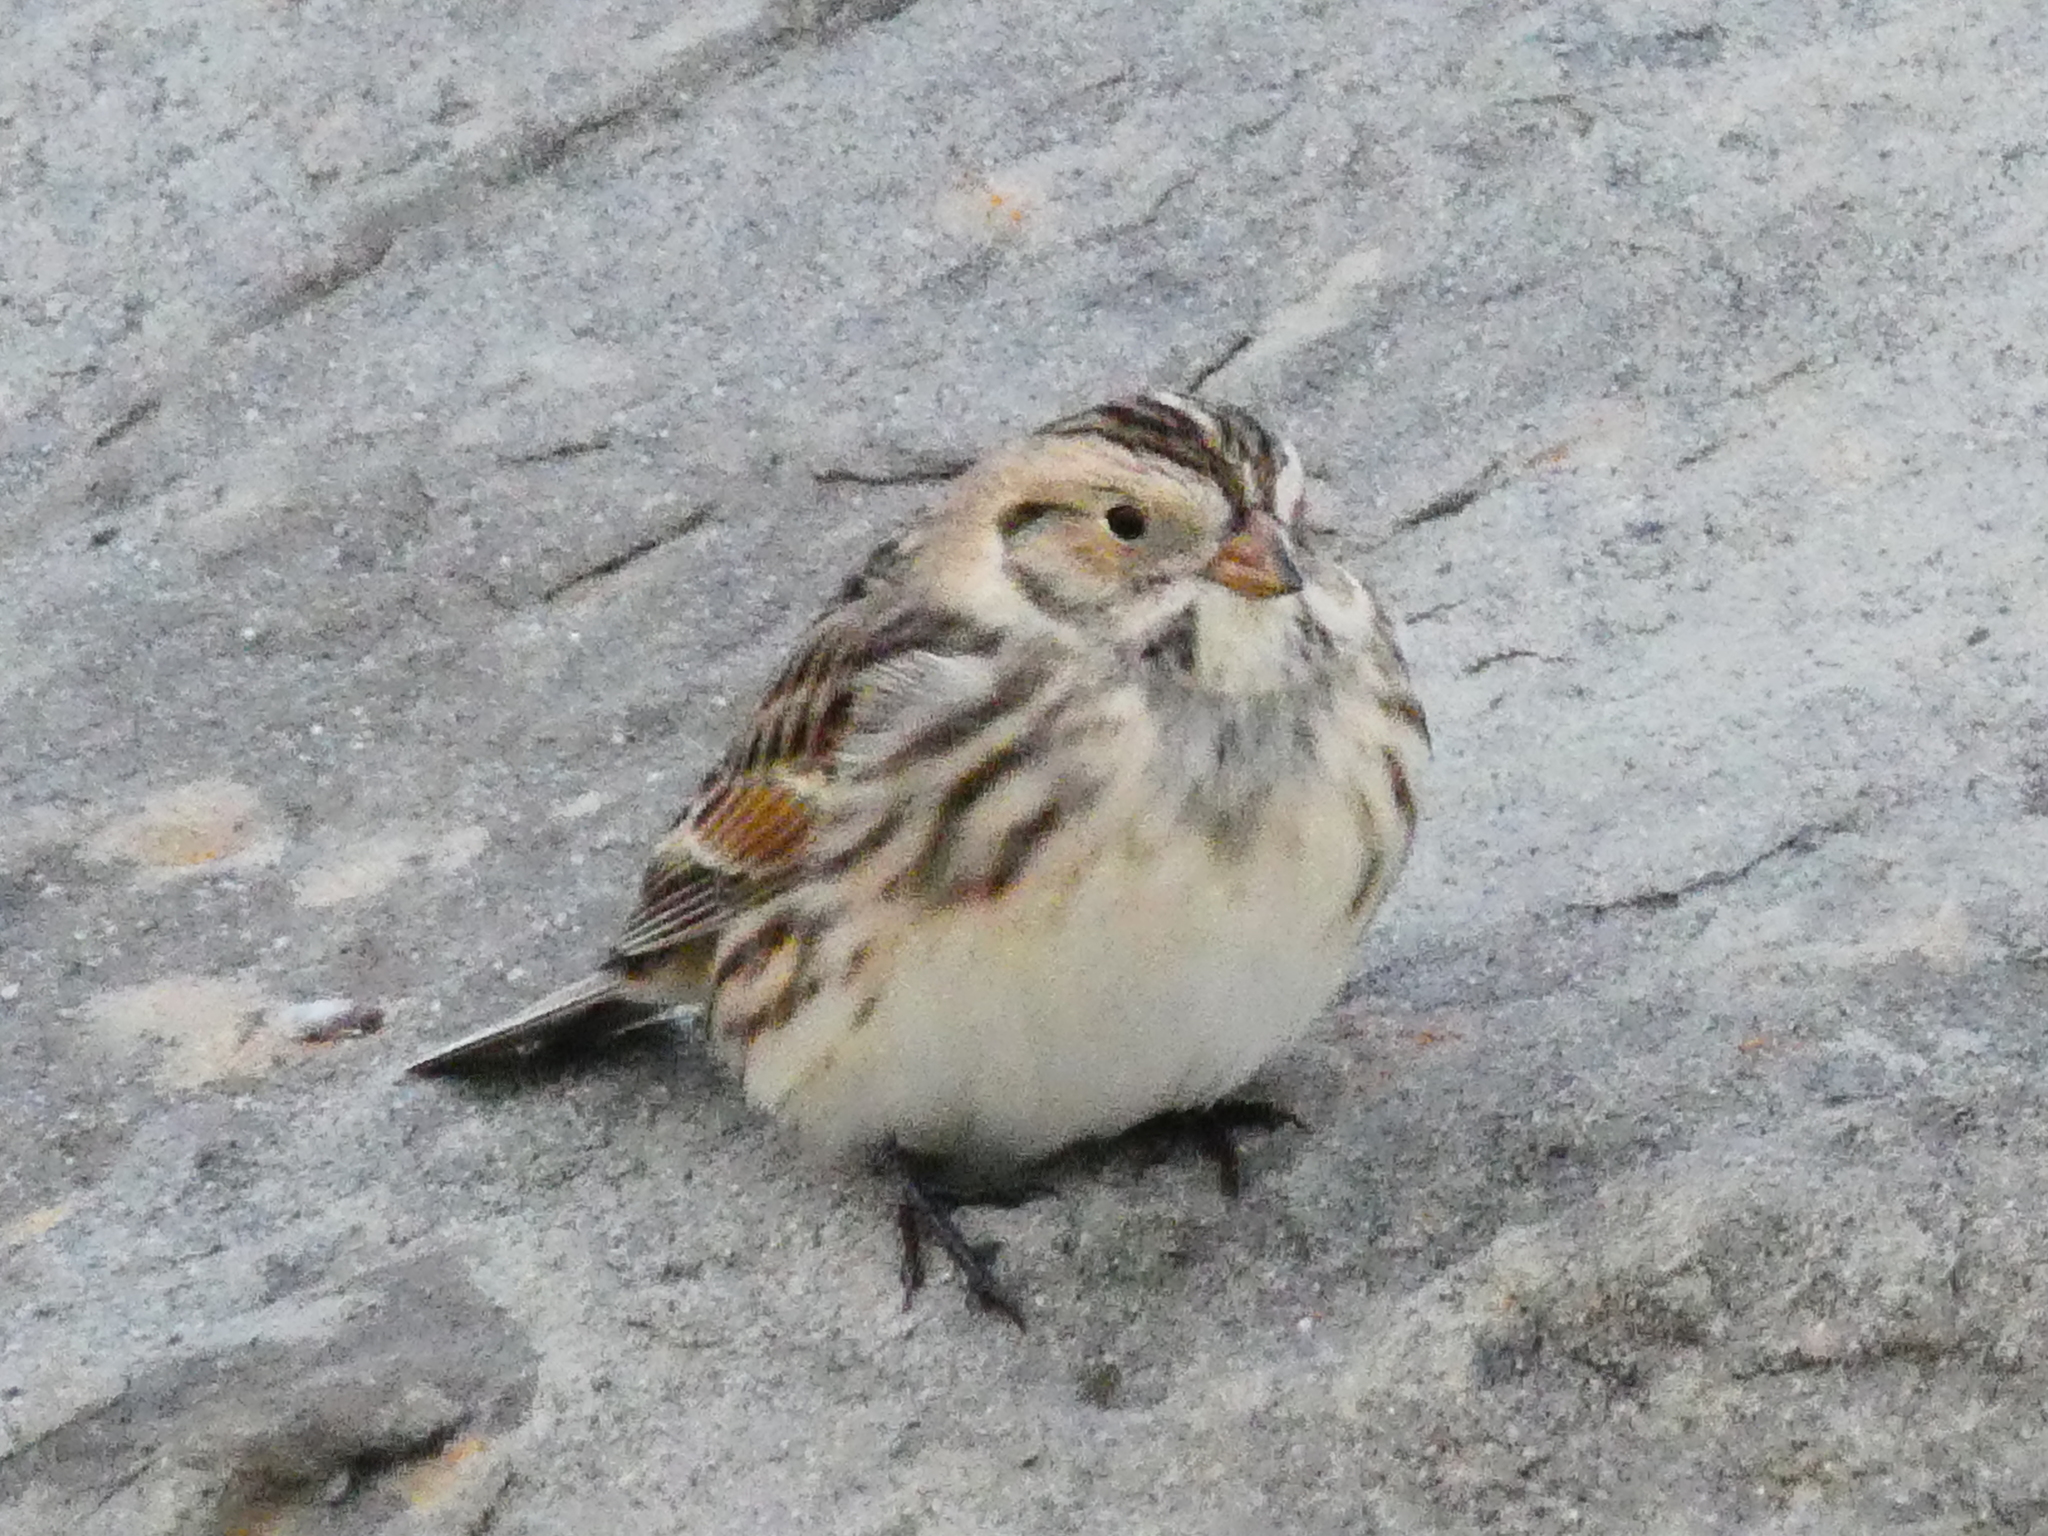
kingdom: Animalia
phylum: Chordata
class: Aves
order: Passeriformes
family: Calcariidae
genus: Calcarius
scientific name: Calcarius lapponicus
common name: Lapland longspur
